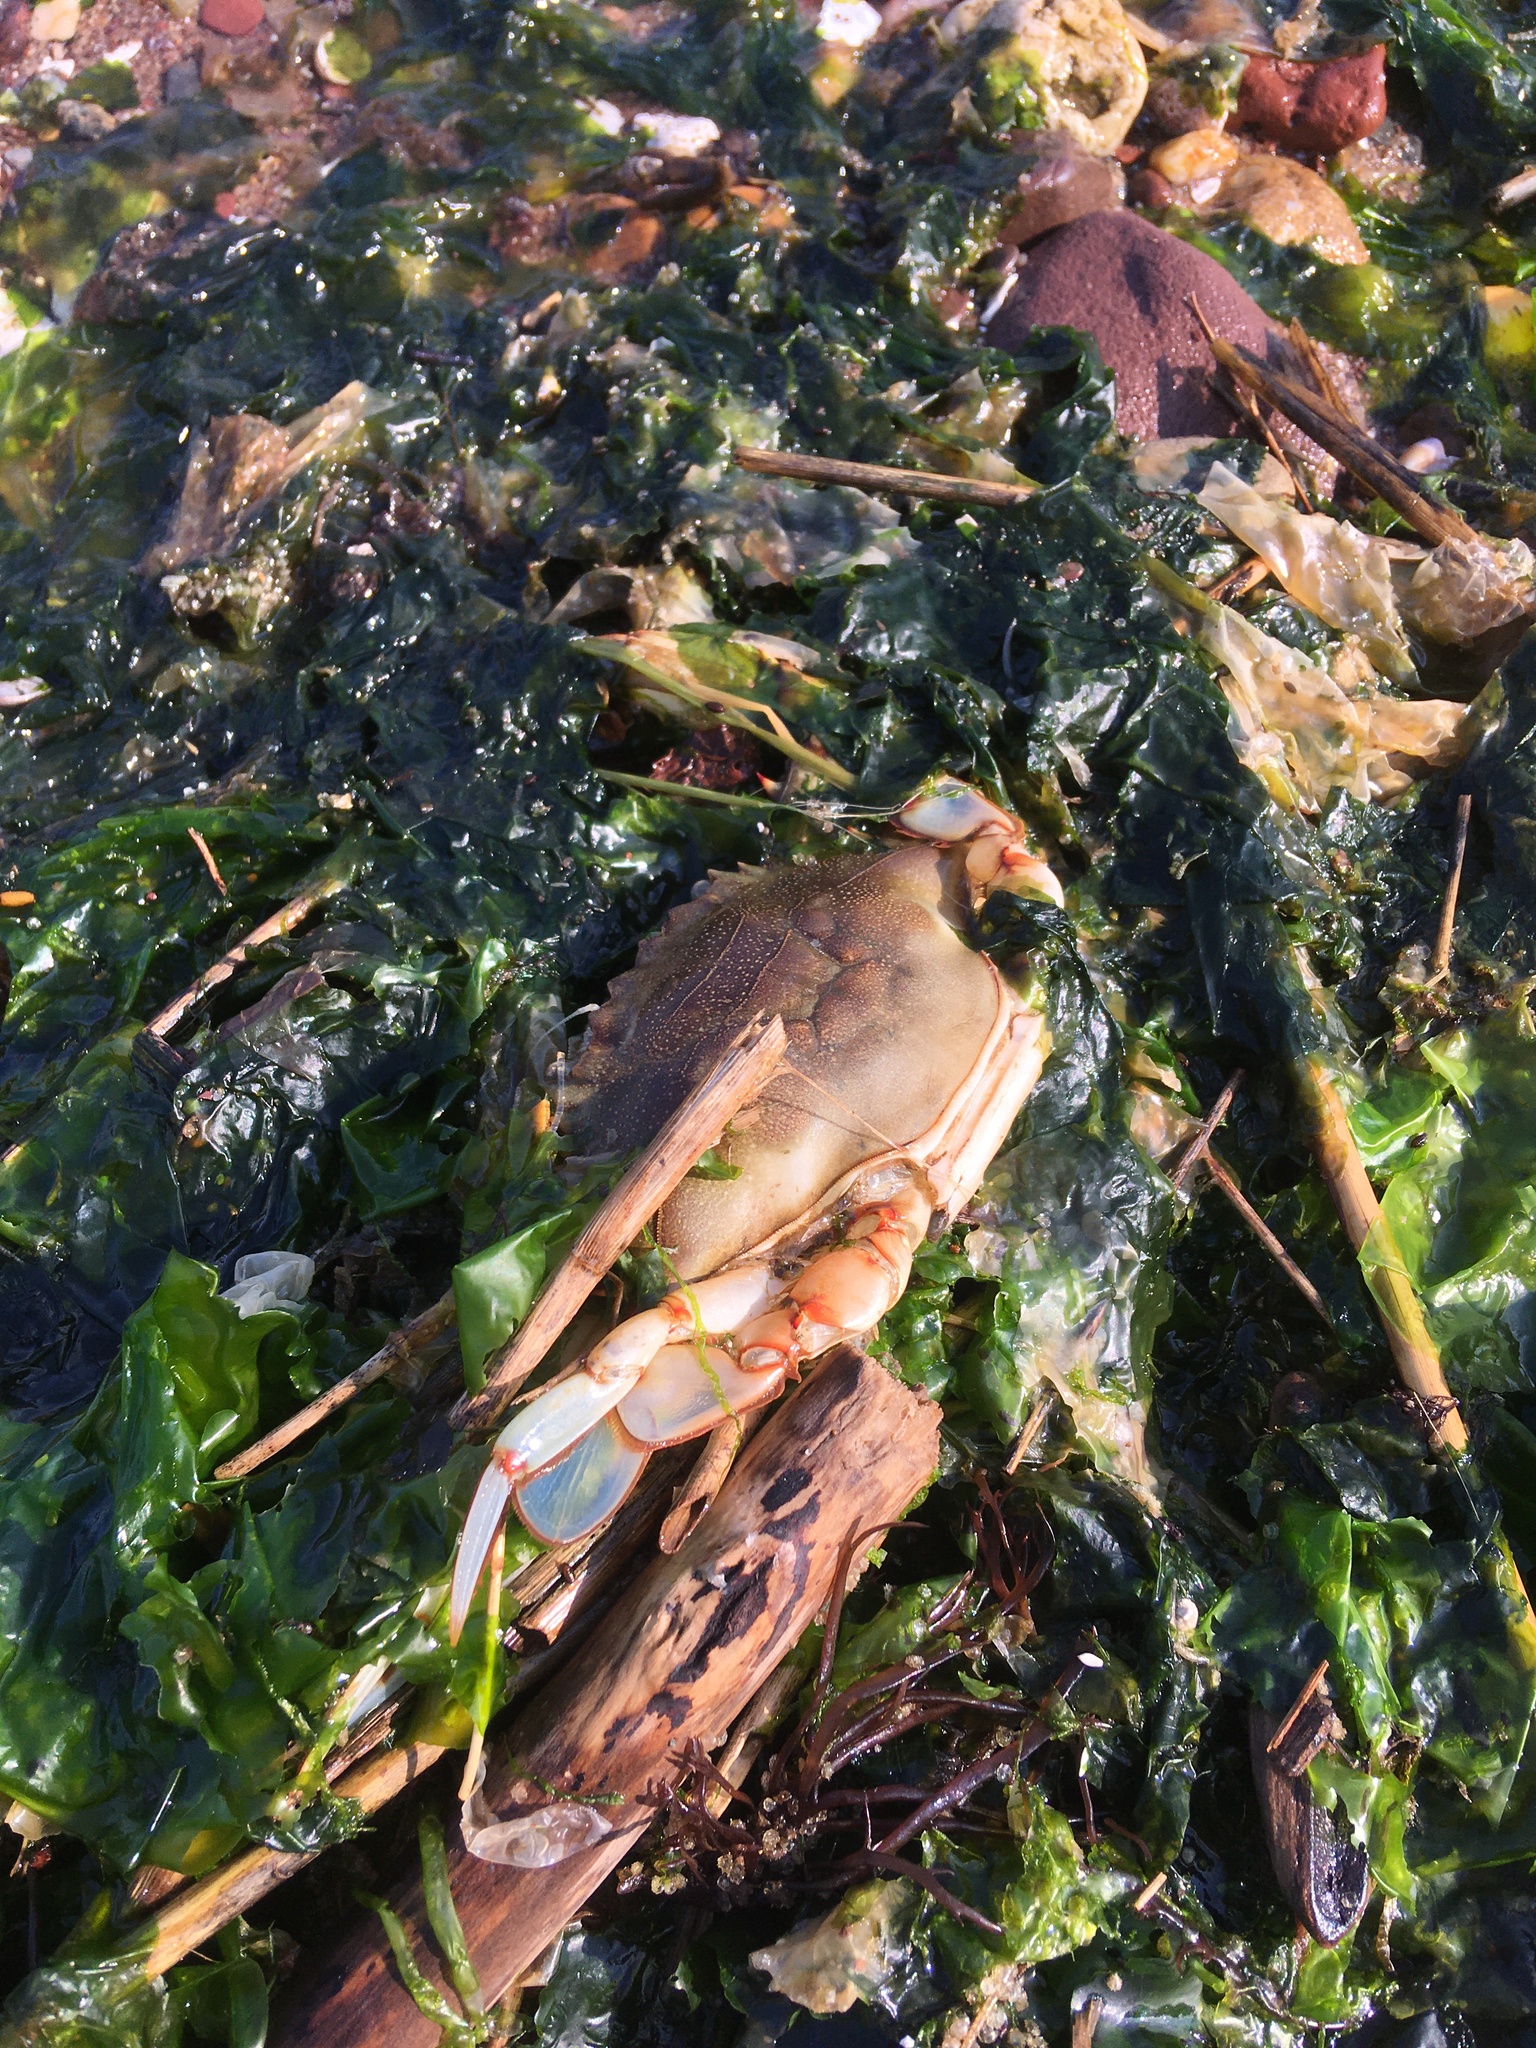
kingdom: Animalia
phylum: Arthropoda
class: Malacostraca
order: Decapoda
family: Portunidae
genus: Callinectes
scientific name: Callinectes sapidus
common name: Blue crab
